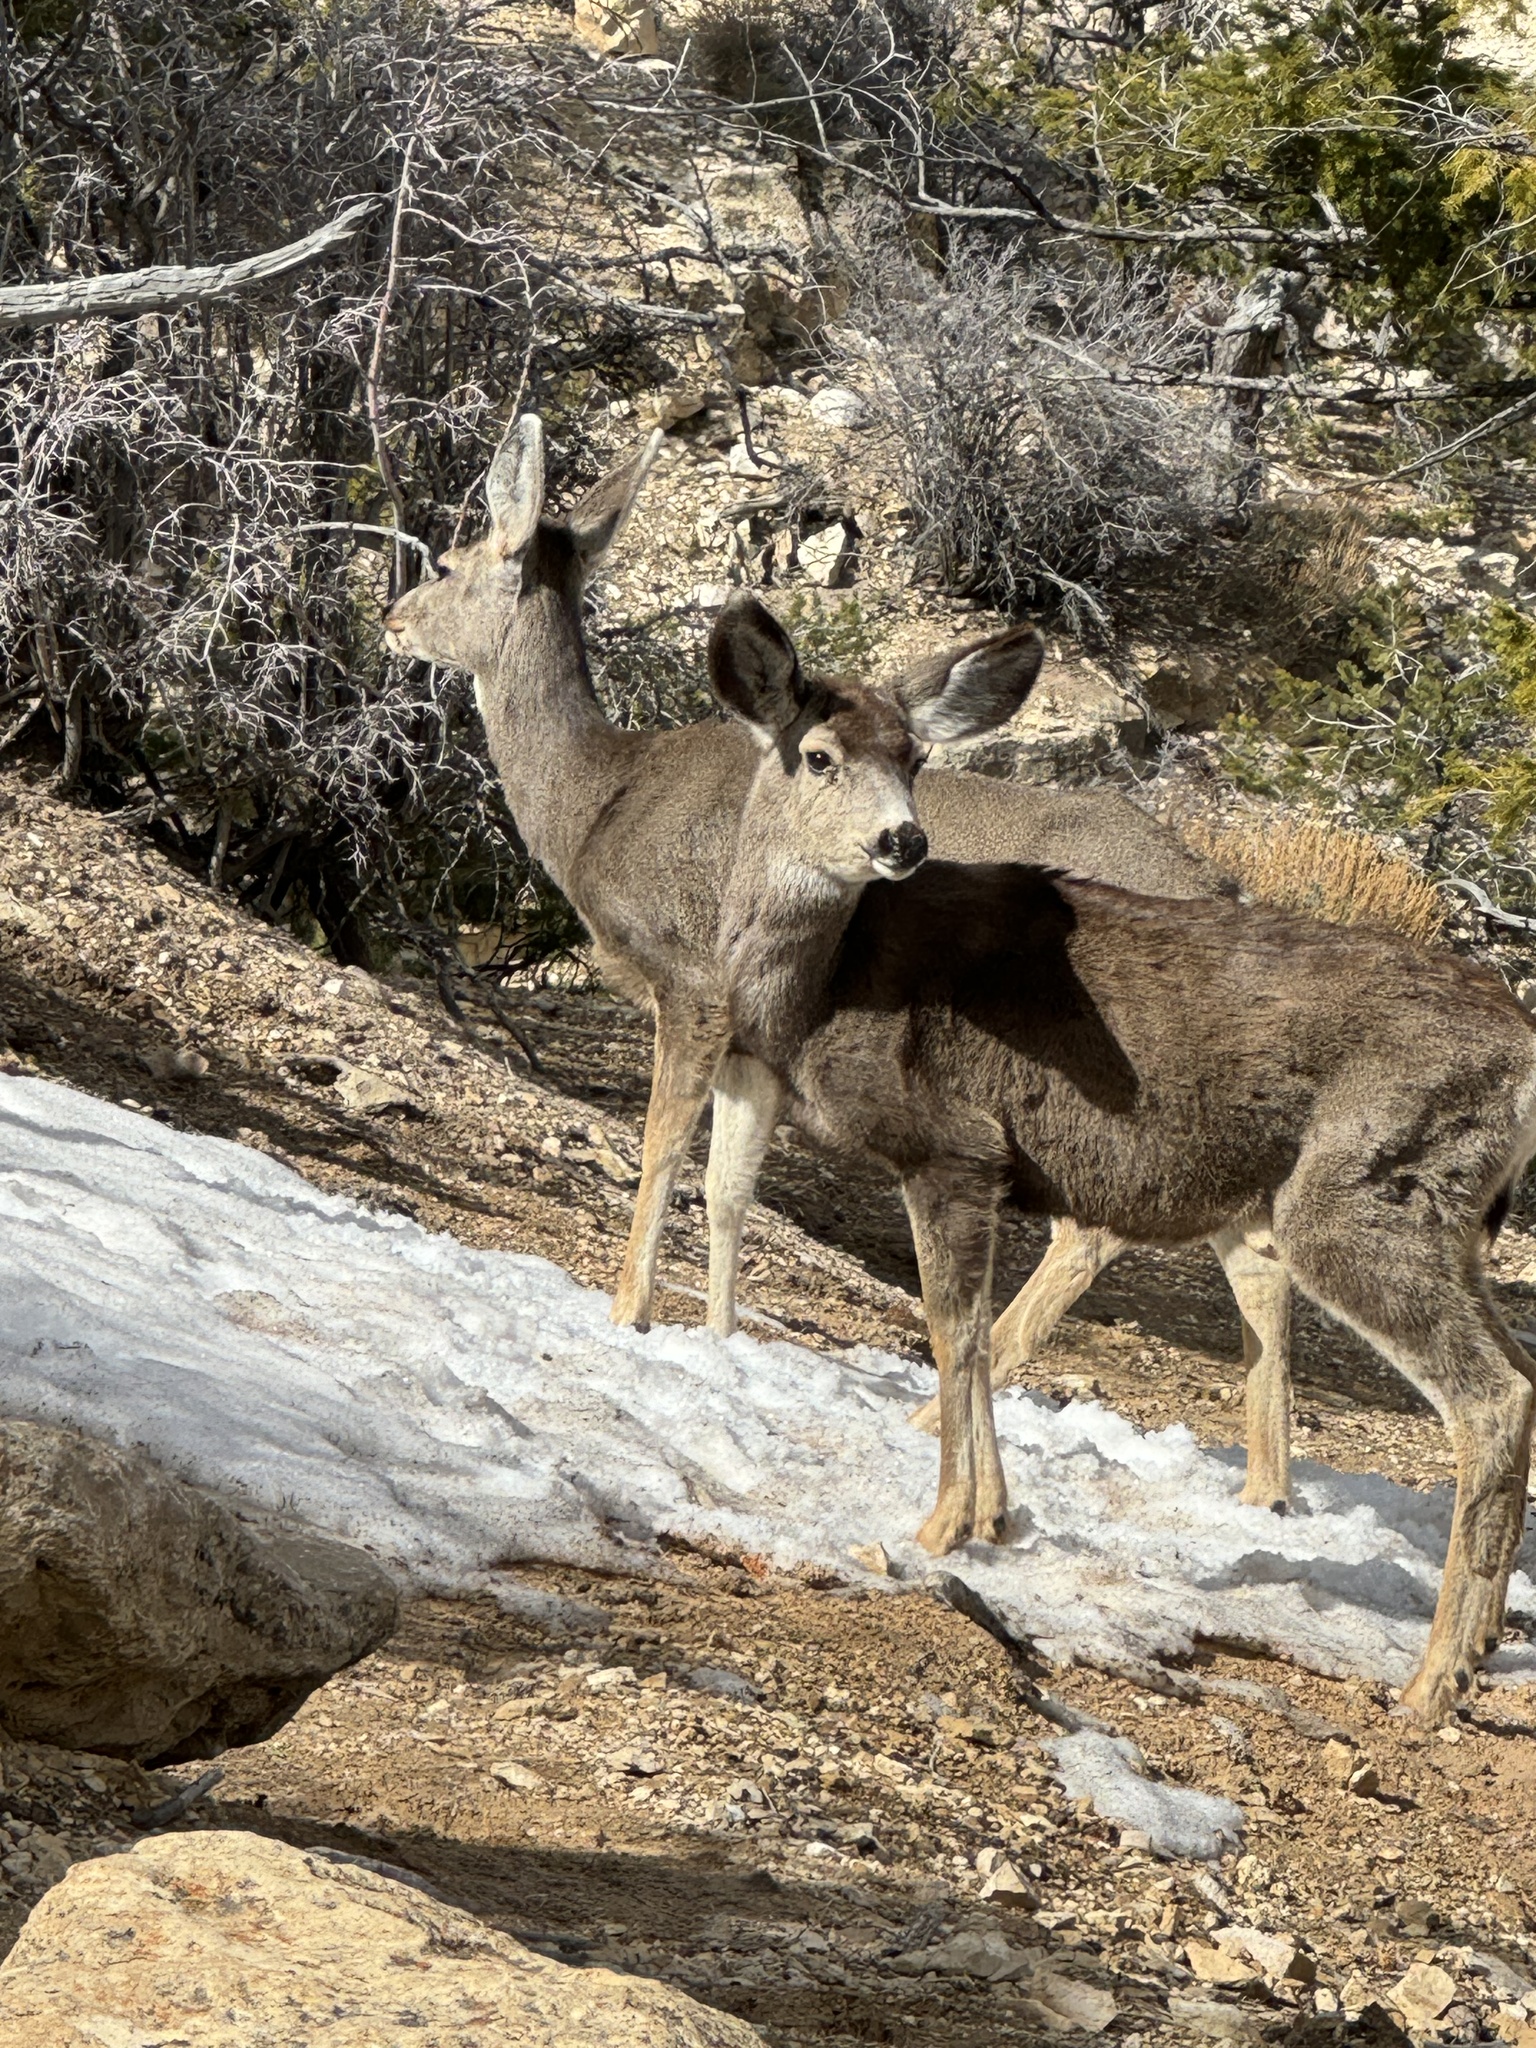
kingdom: Animalia
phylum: Chordata
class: Mammalia
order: Artiodactyla
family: Cervidae
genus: Odocoileus
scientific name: Odocoileus hemionus
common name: Mule deer
